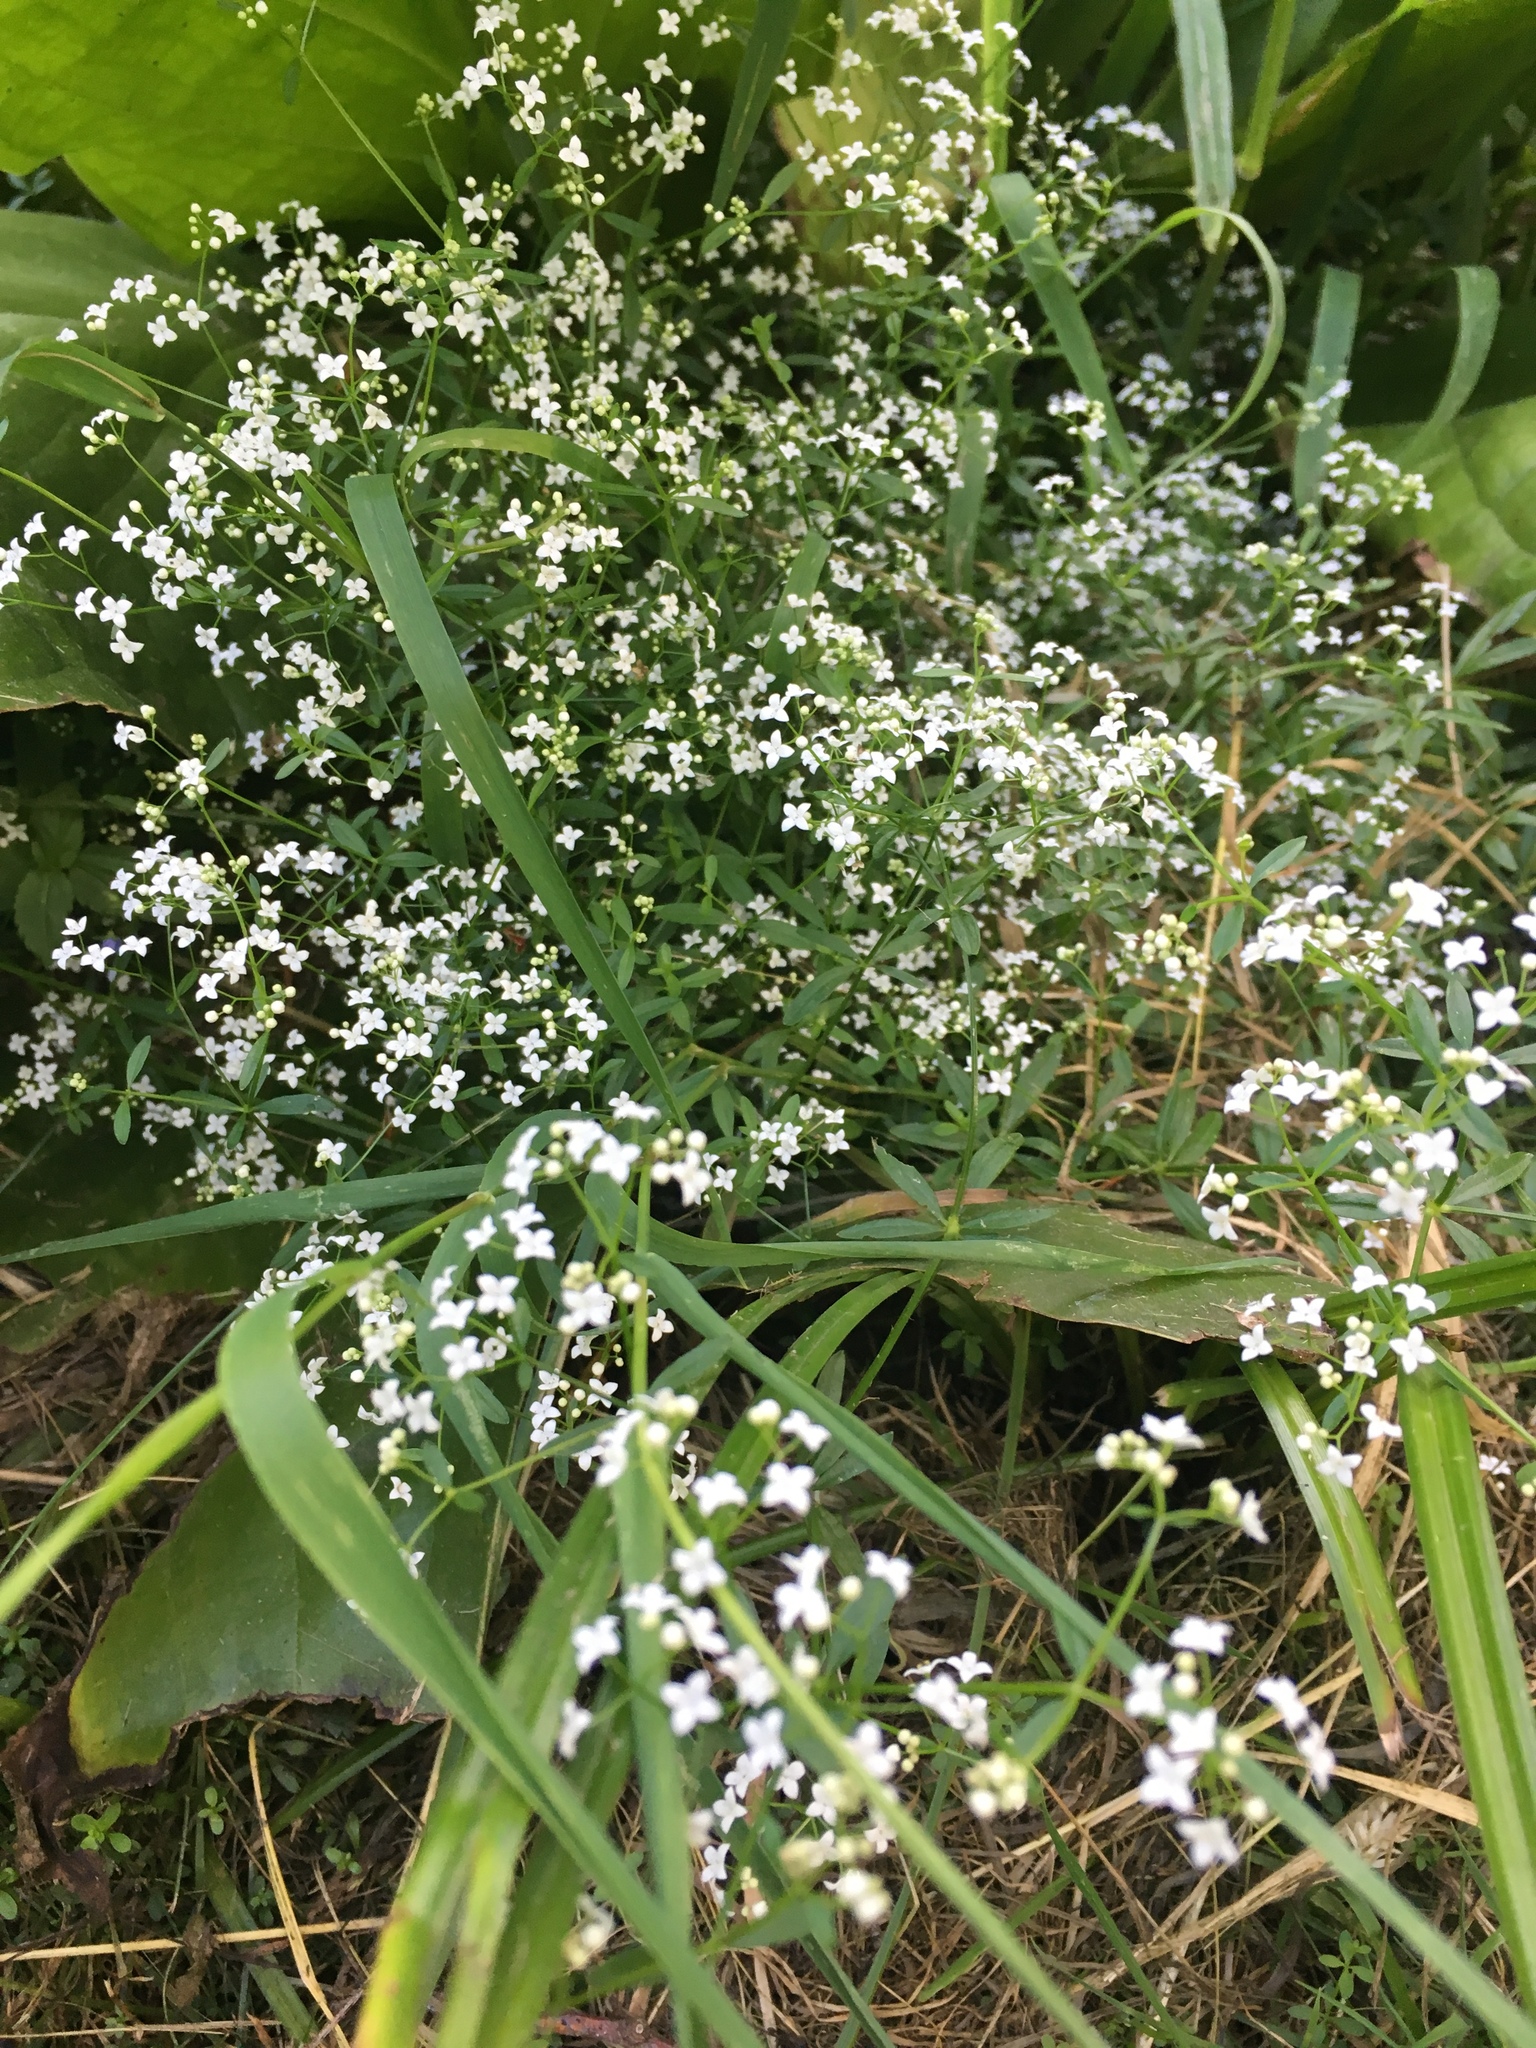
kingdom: Plantae
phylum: Tracheophyta
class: Magnoliopsida
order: Gentianales
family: Rubiaceae
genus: Galium
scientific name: Galium palustre
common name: Common marsh-bedstraw
